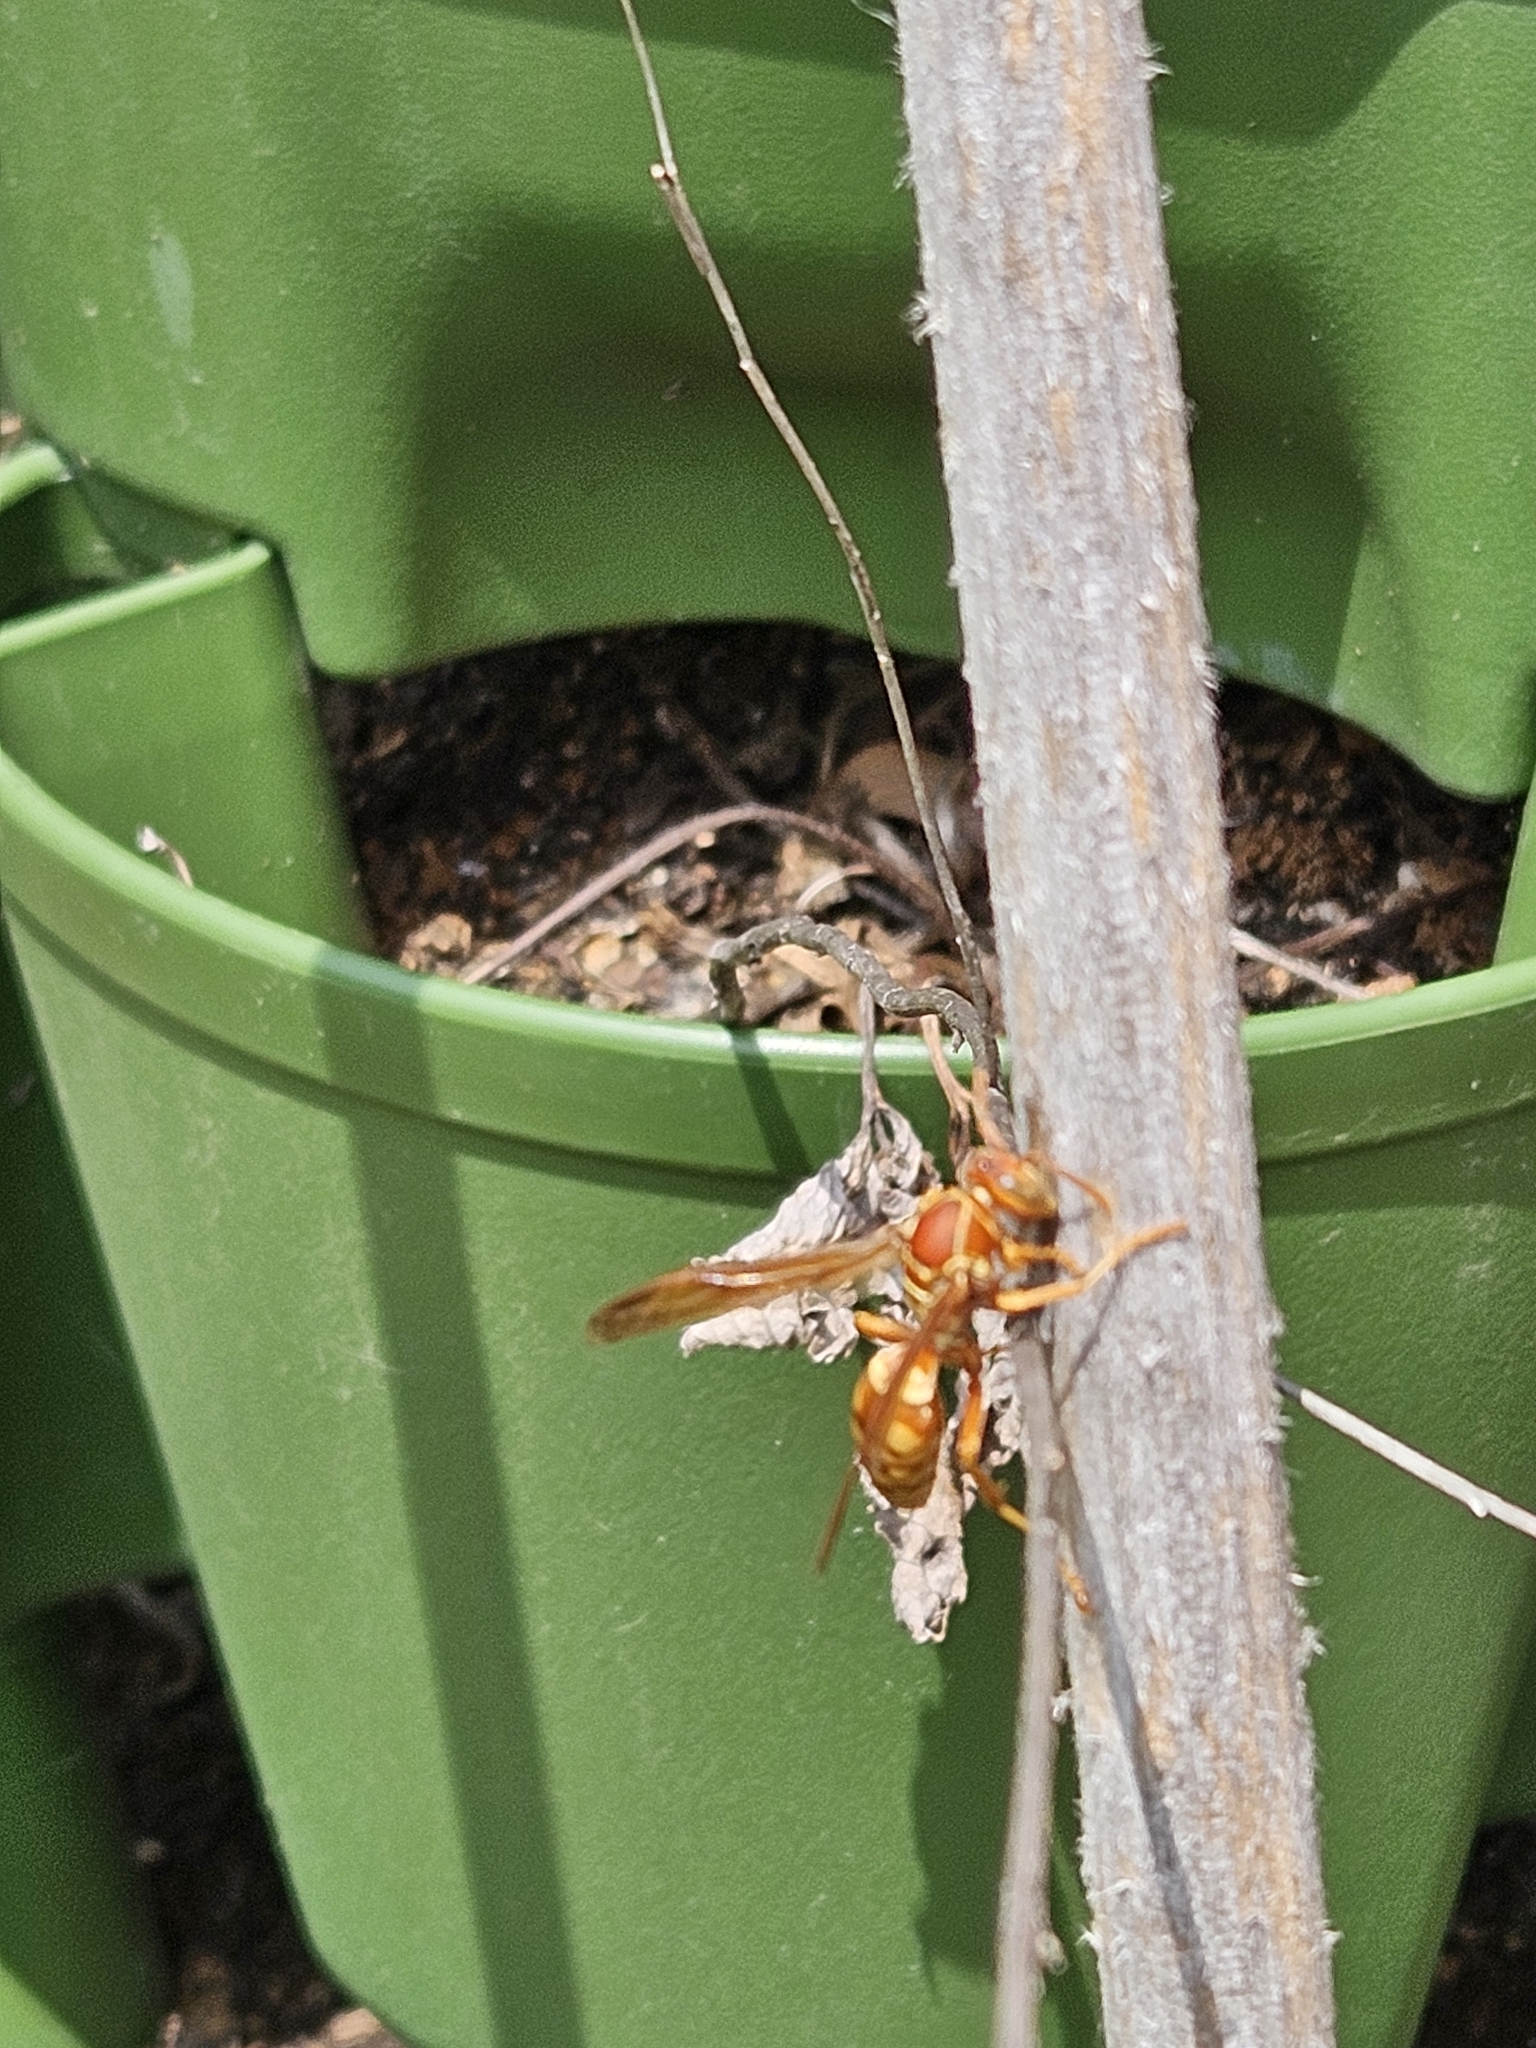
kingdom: Animalia
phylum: Arthropoda
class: Insecta
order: Hymenoptera
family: Eumenidae
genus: Polistes
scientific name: Polistes apachus
